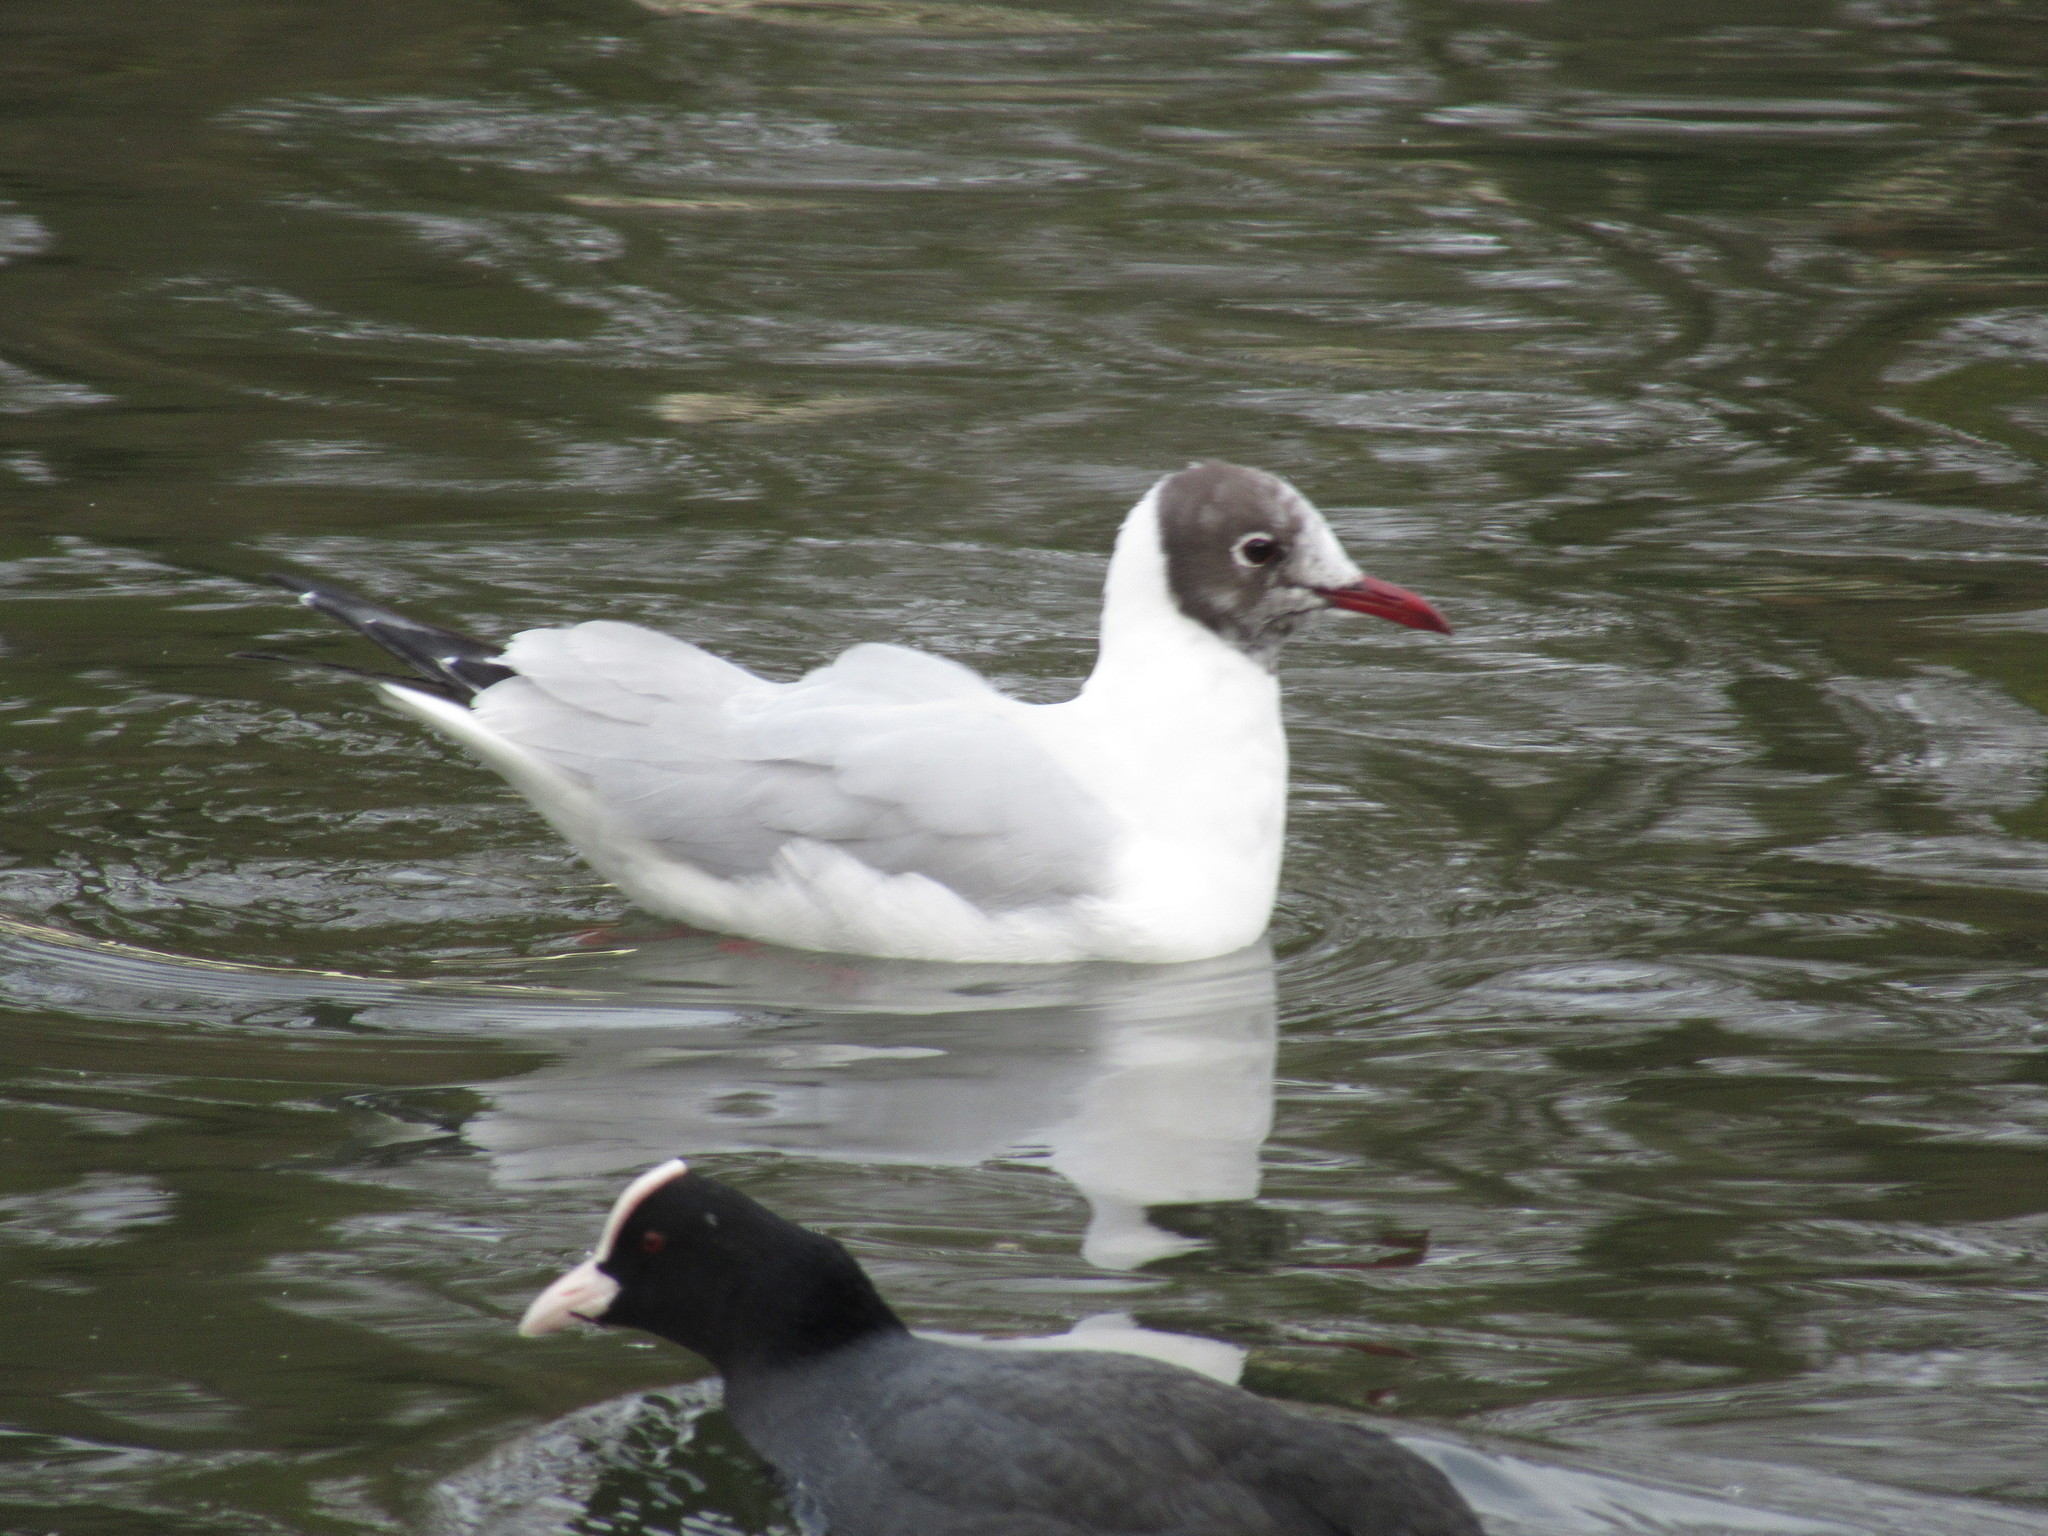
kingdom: Animalia
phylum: Chordata
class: Aves
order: Charadriiformes
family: Laridae
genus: Chroicocephalus
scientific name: Chroicocephalus ridibundus
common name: Black-headed gull
